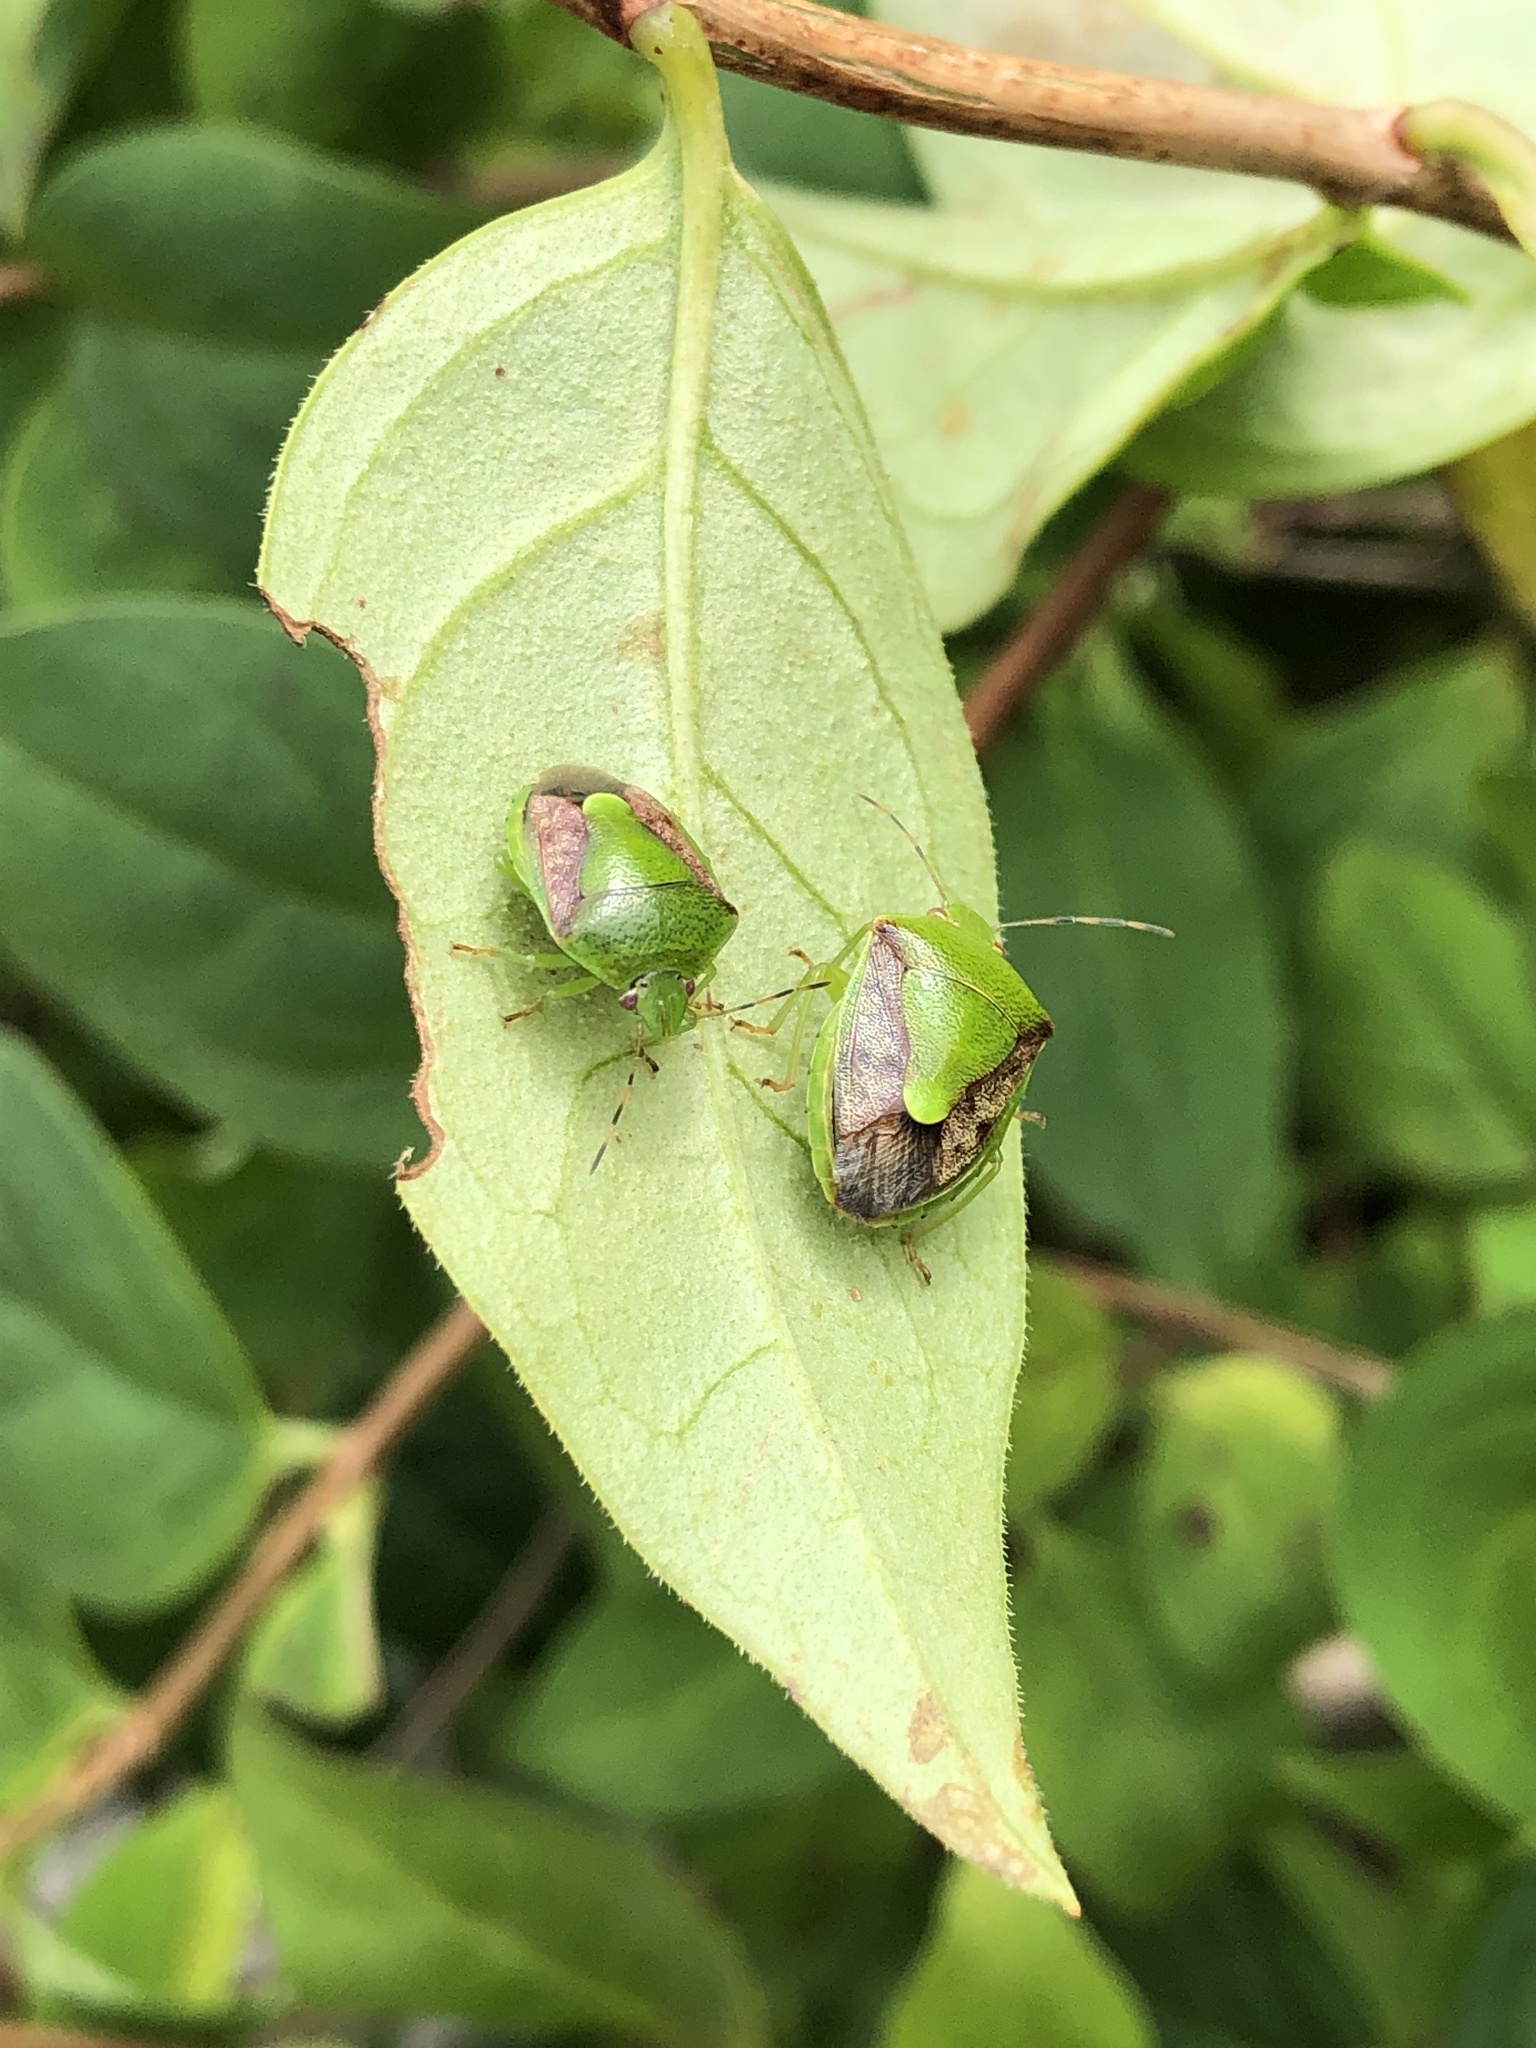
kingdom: Animalia
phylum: Arthropoda
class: Insecta
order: Hemiptera
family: Pentatomidae
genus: Plautia
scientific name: Plautia stali
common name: Stink bug
